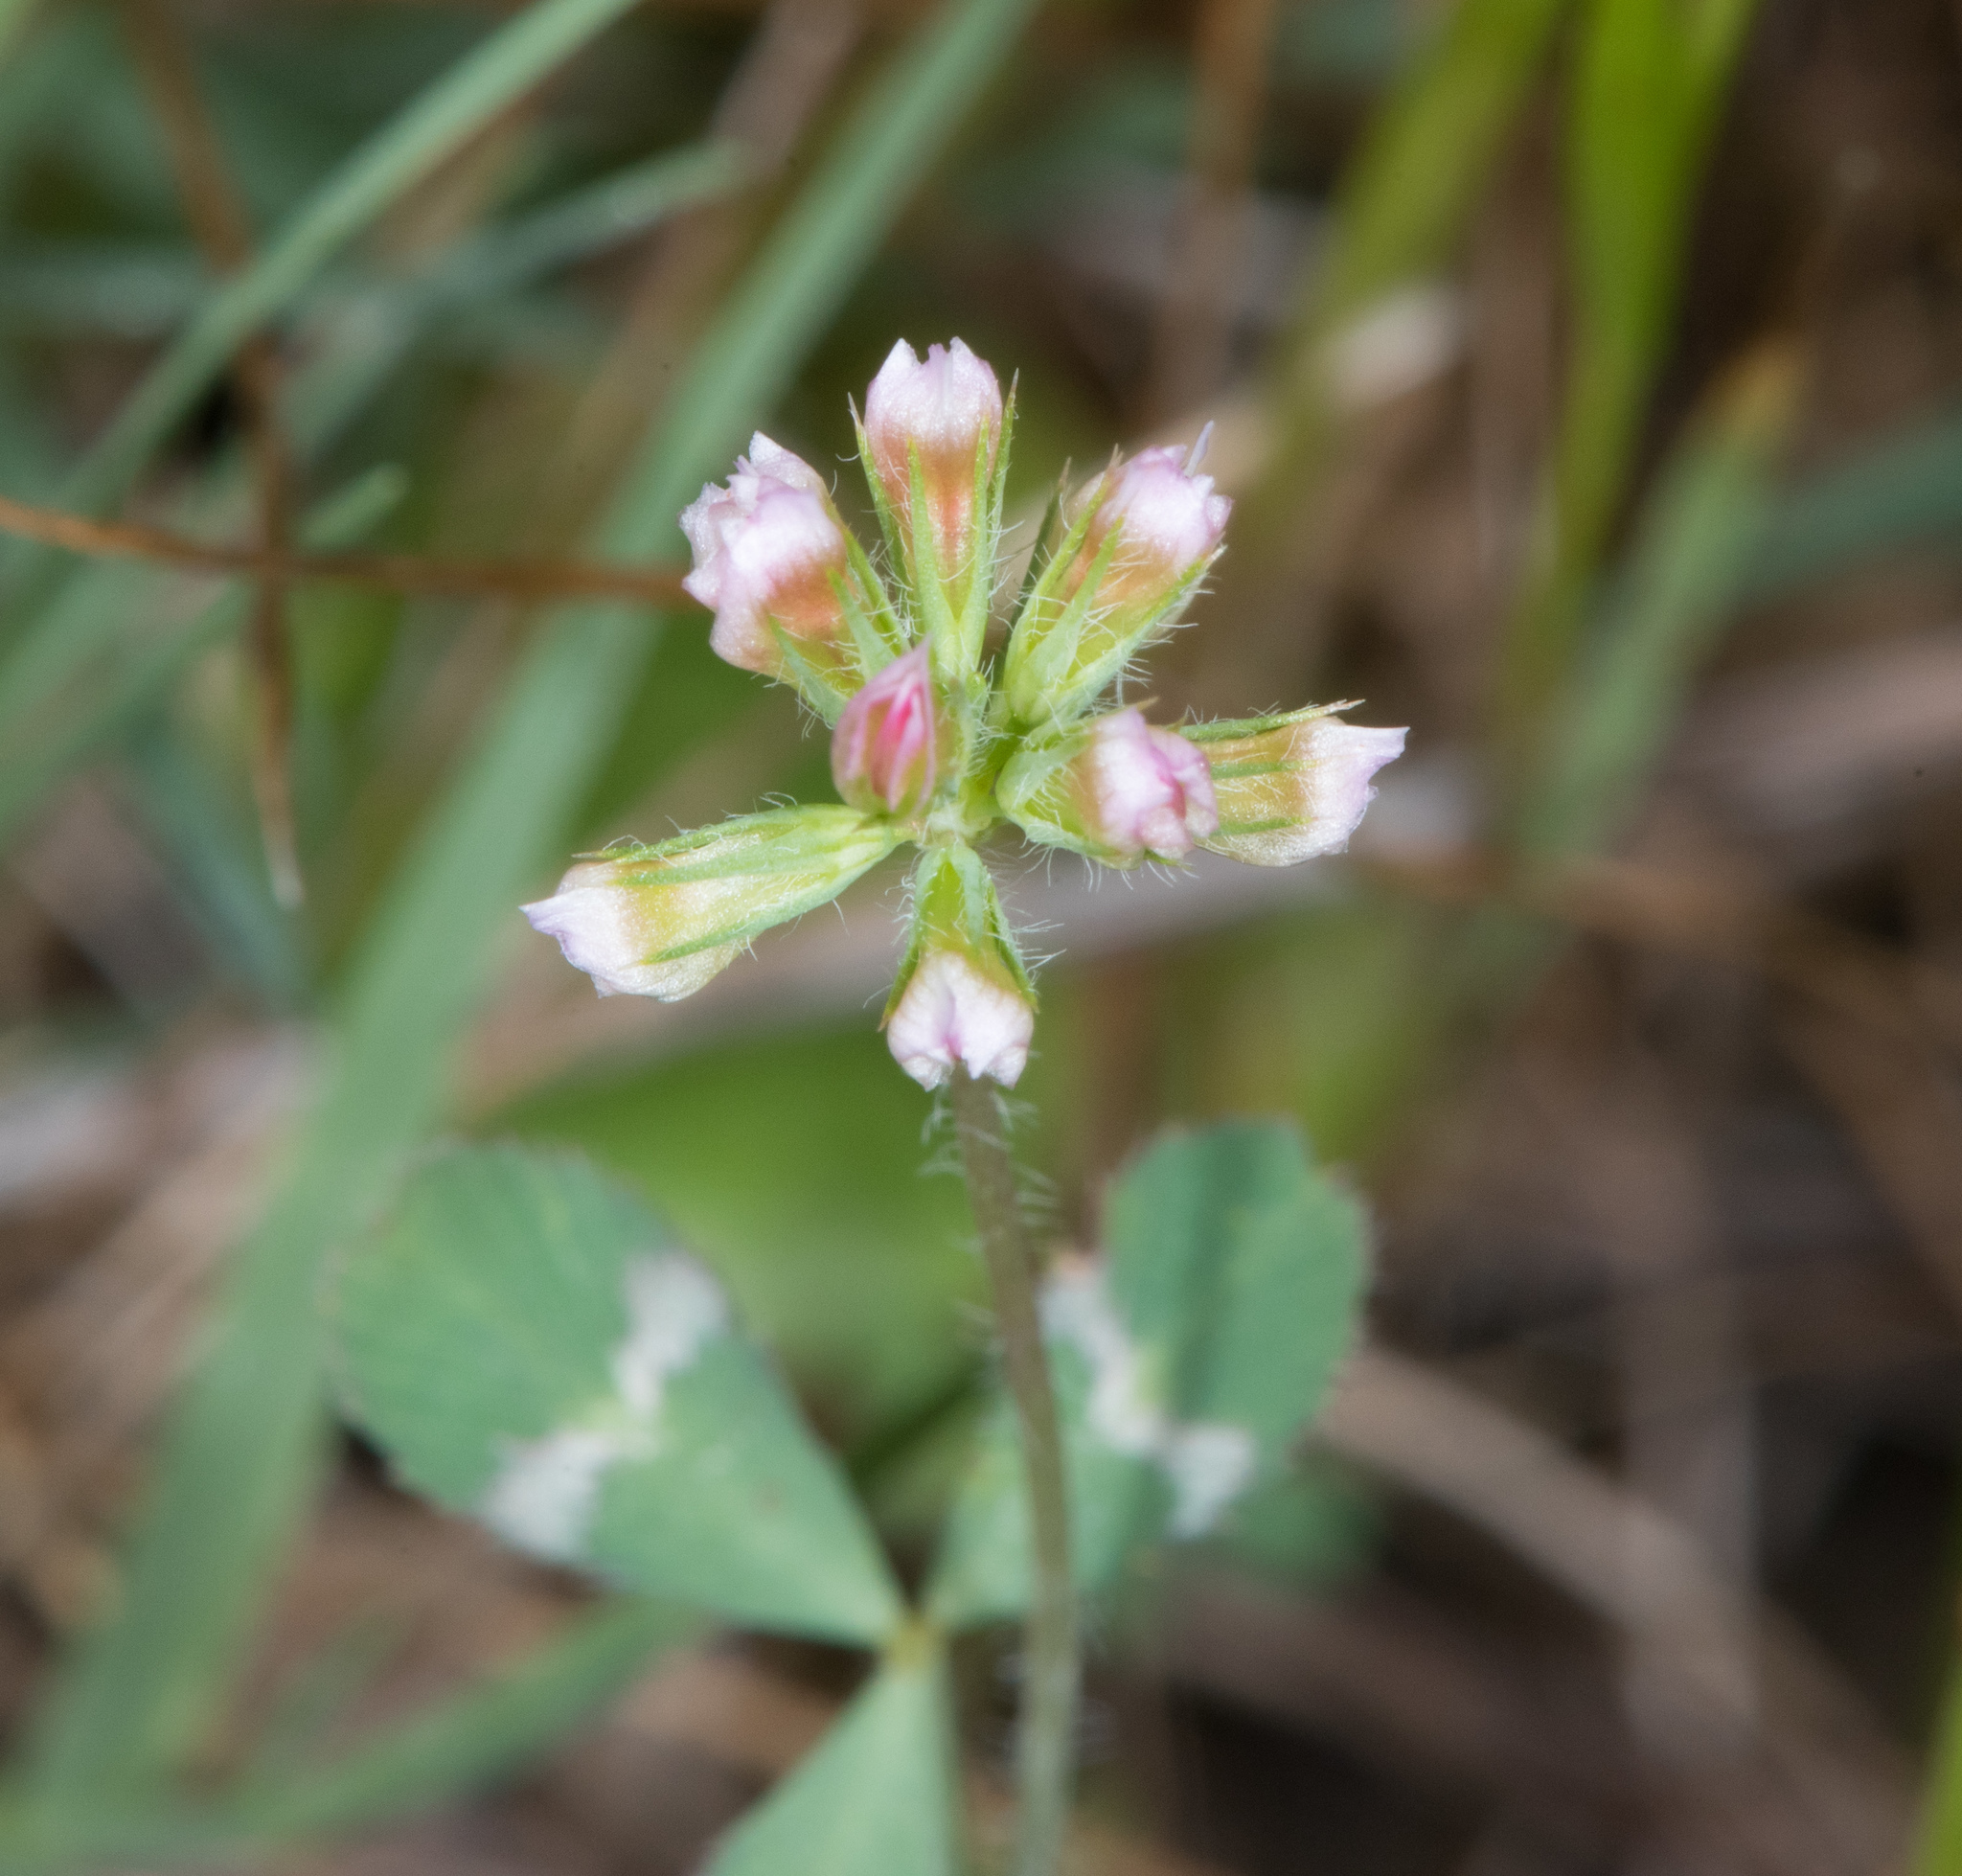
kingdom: Plantae
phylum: Tracheophyta
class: Magnoliopsida
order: Fabales
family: Fabaceae
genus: Trifolium
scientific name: Trifolium bifidum
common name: Notch-leaf clover
